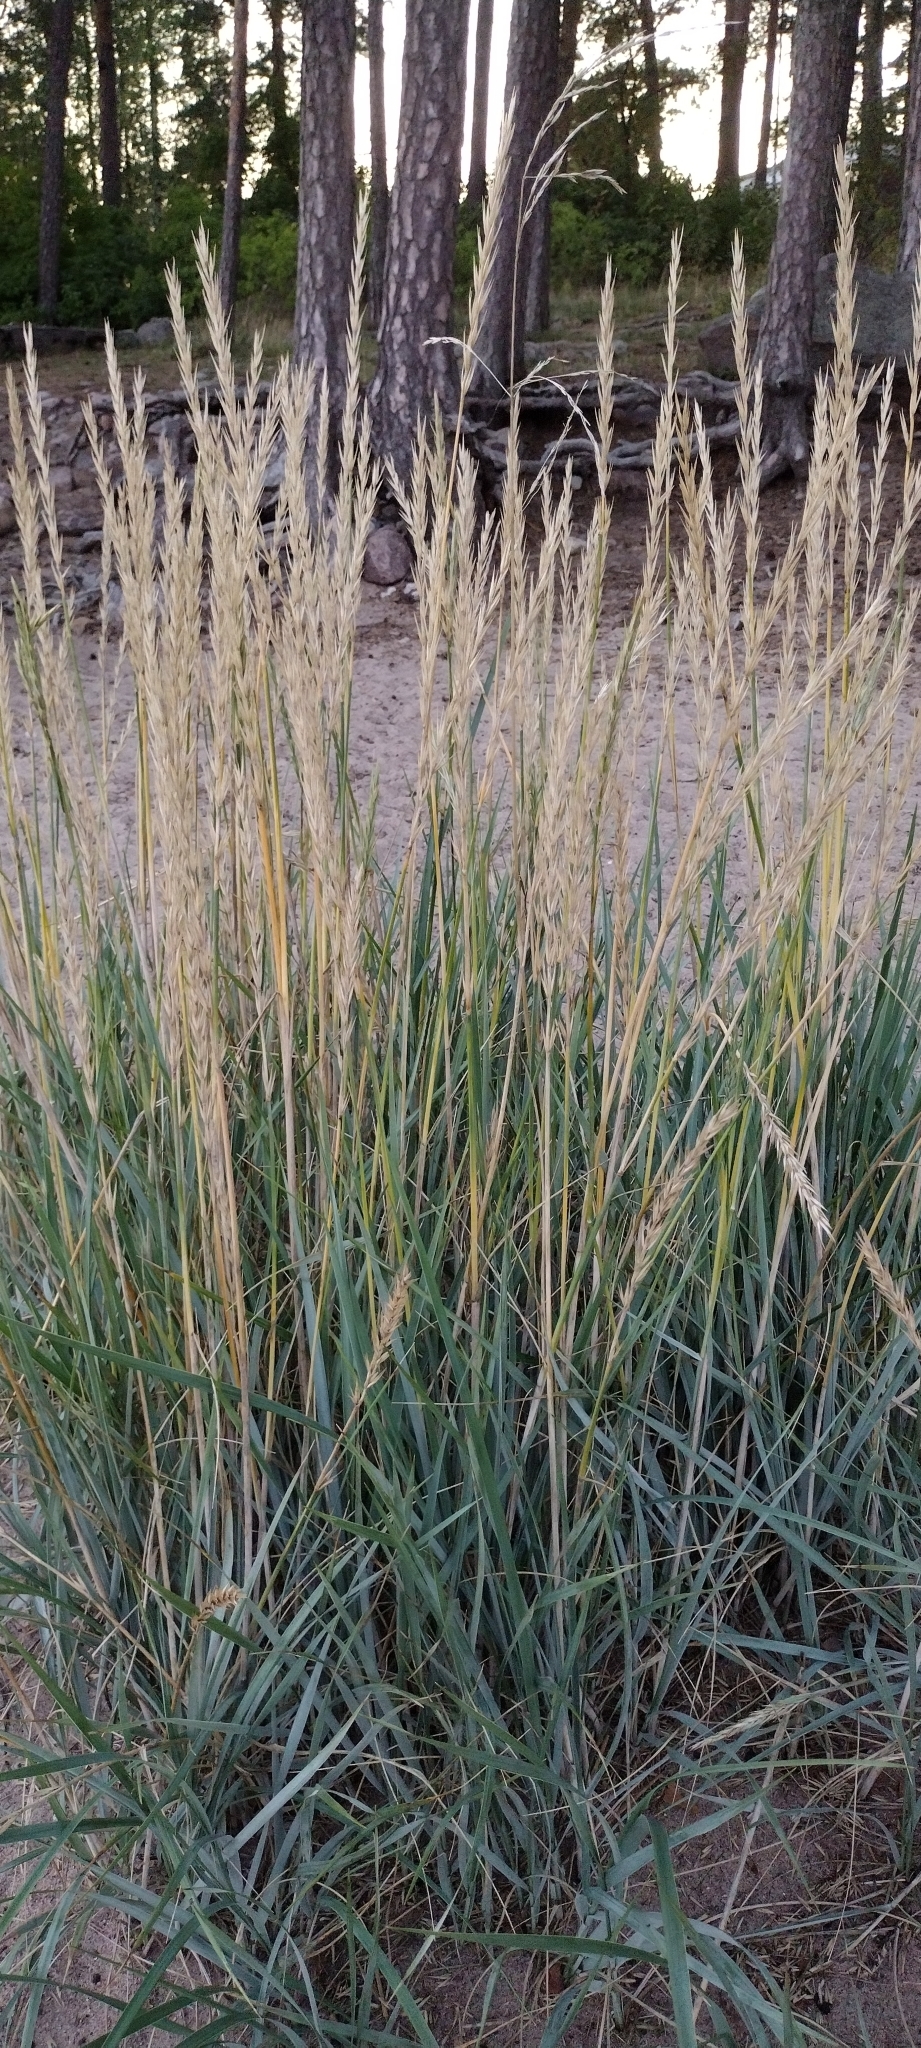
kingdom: Plantae
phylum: Tracheophyta
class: Liliopsida
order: Poales
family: Poaceae
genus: Leymus
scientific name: Leymus arenarius
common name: Lyme-grass
